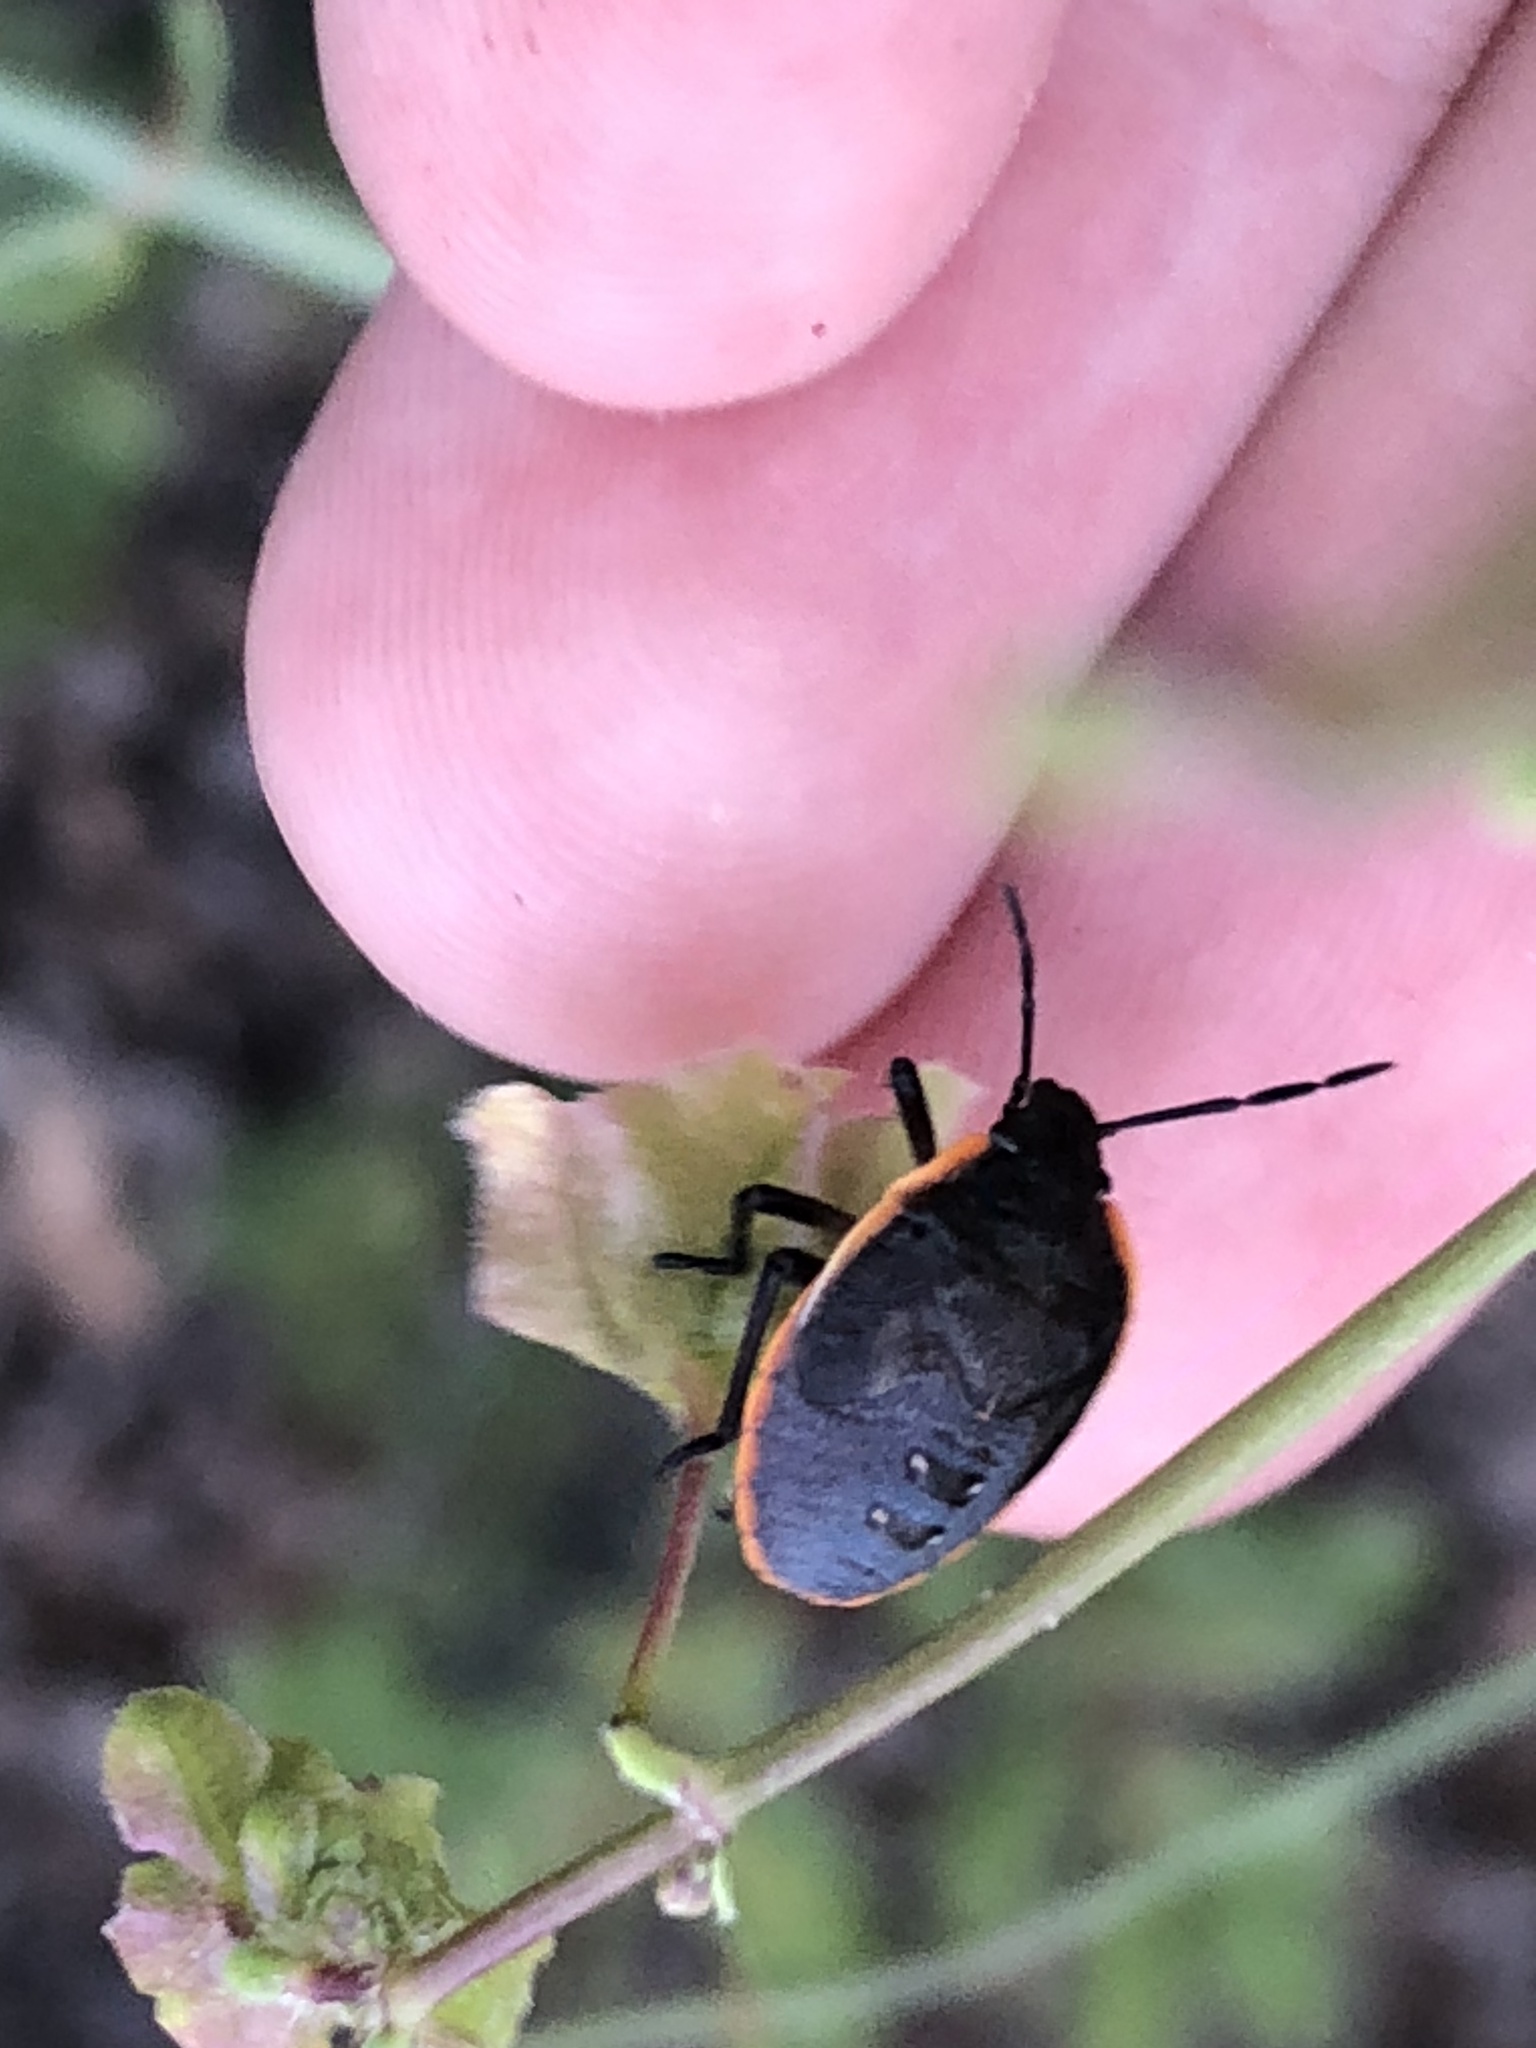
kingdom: Animalia
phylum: Arthropoda
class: Insecta
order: Hemiptera
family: Pentatomidae
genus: Chlorochroa
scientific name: Chlorochroa ligata
